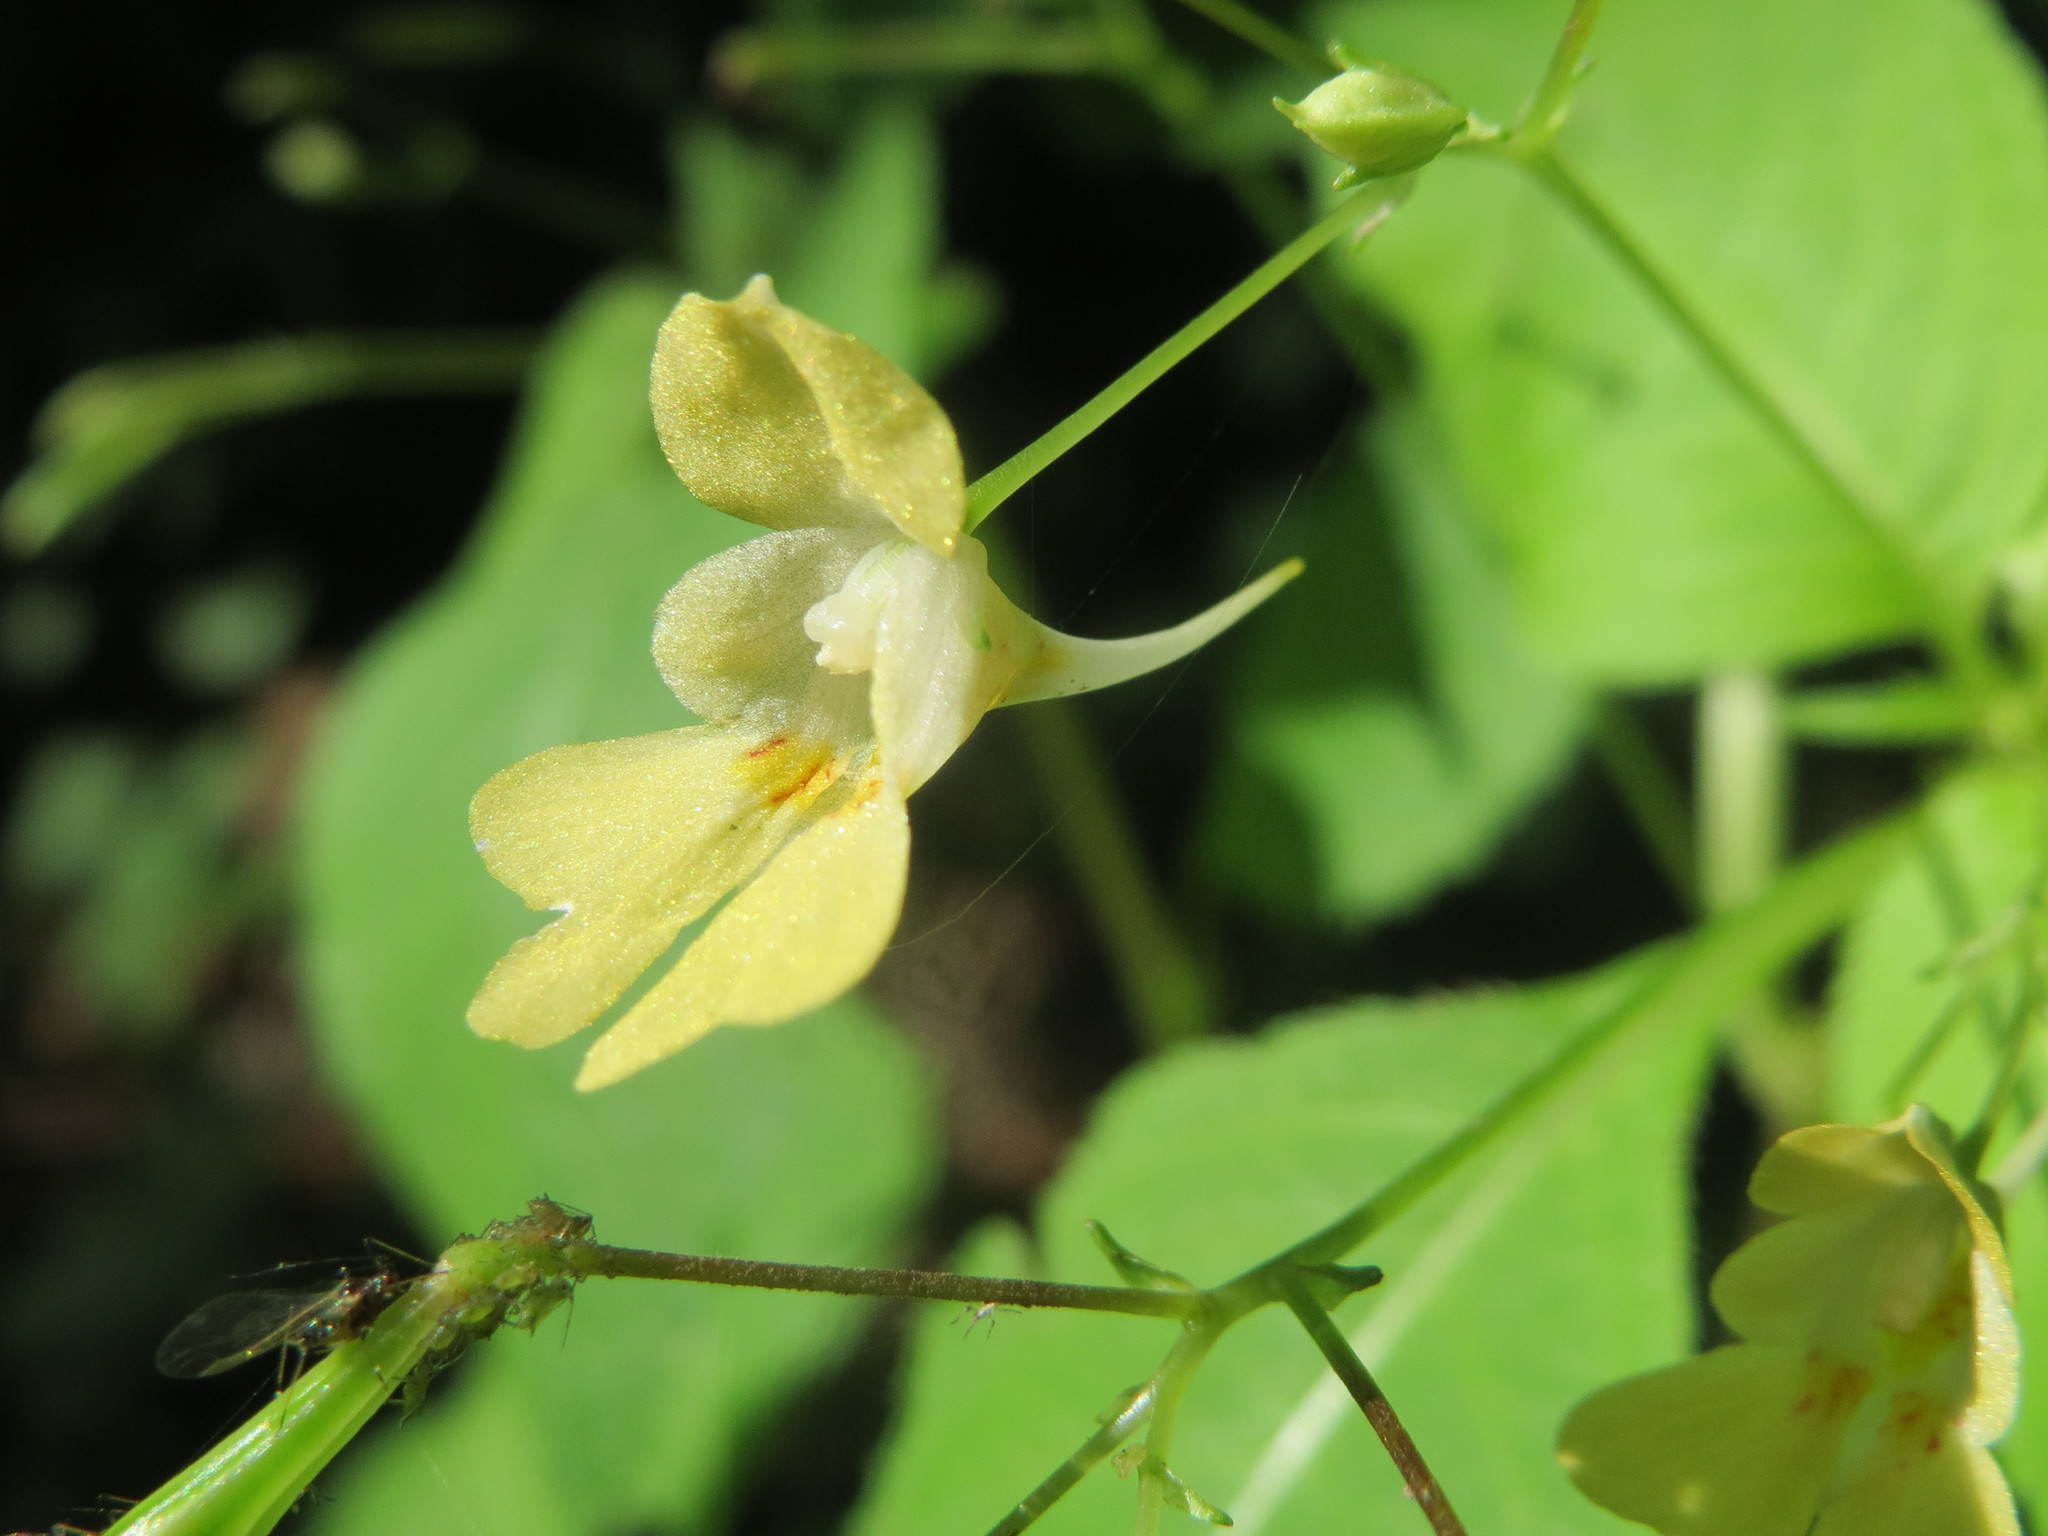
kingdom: Plantae
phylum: Tracheophyta
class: Magnoliopsida
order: Ericales
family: Balsaminaceae
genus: Impatiens
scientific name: Impatiens parviflora
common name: Small balsam
